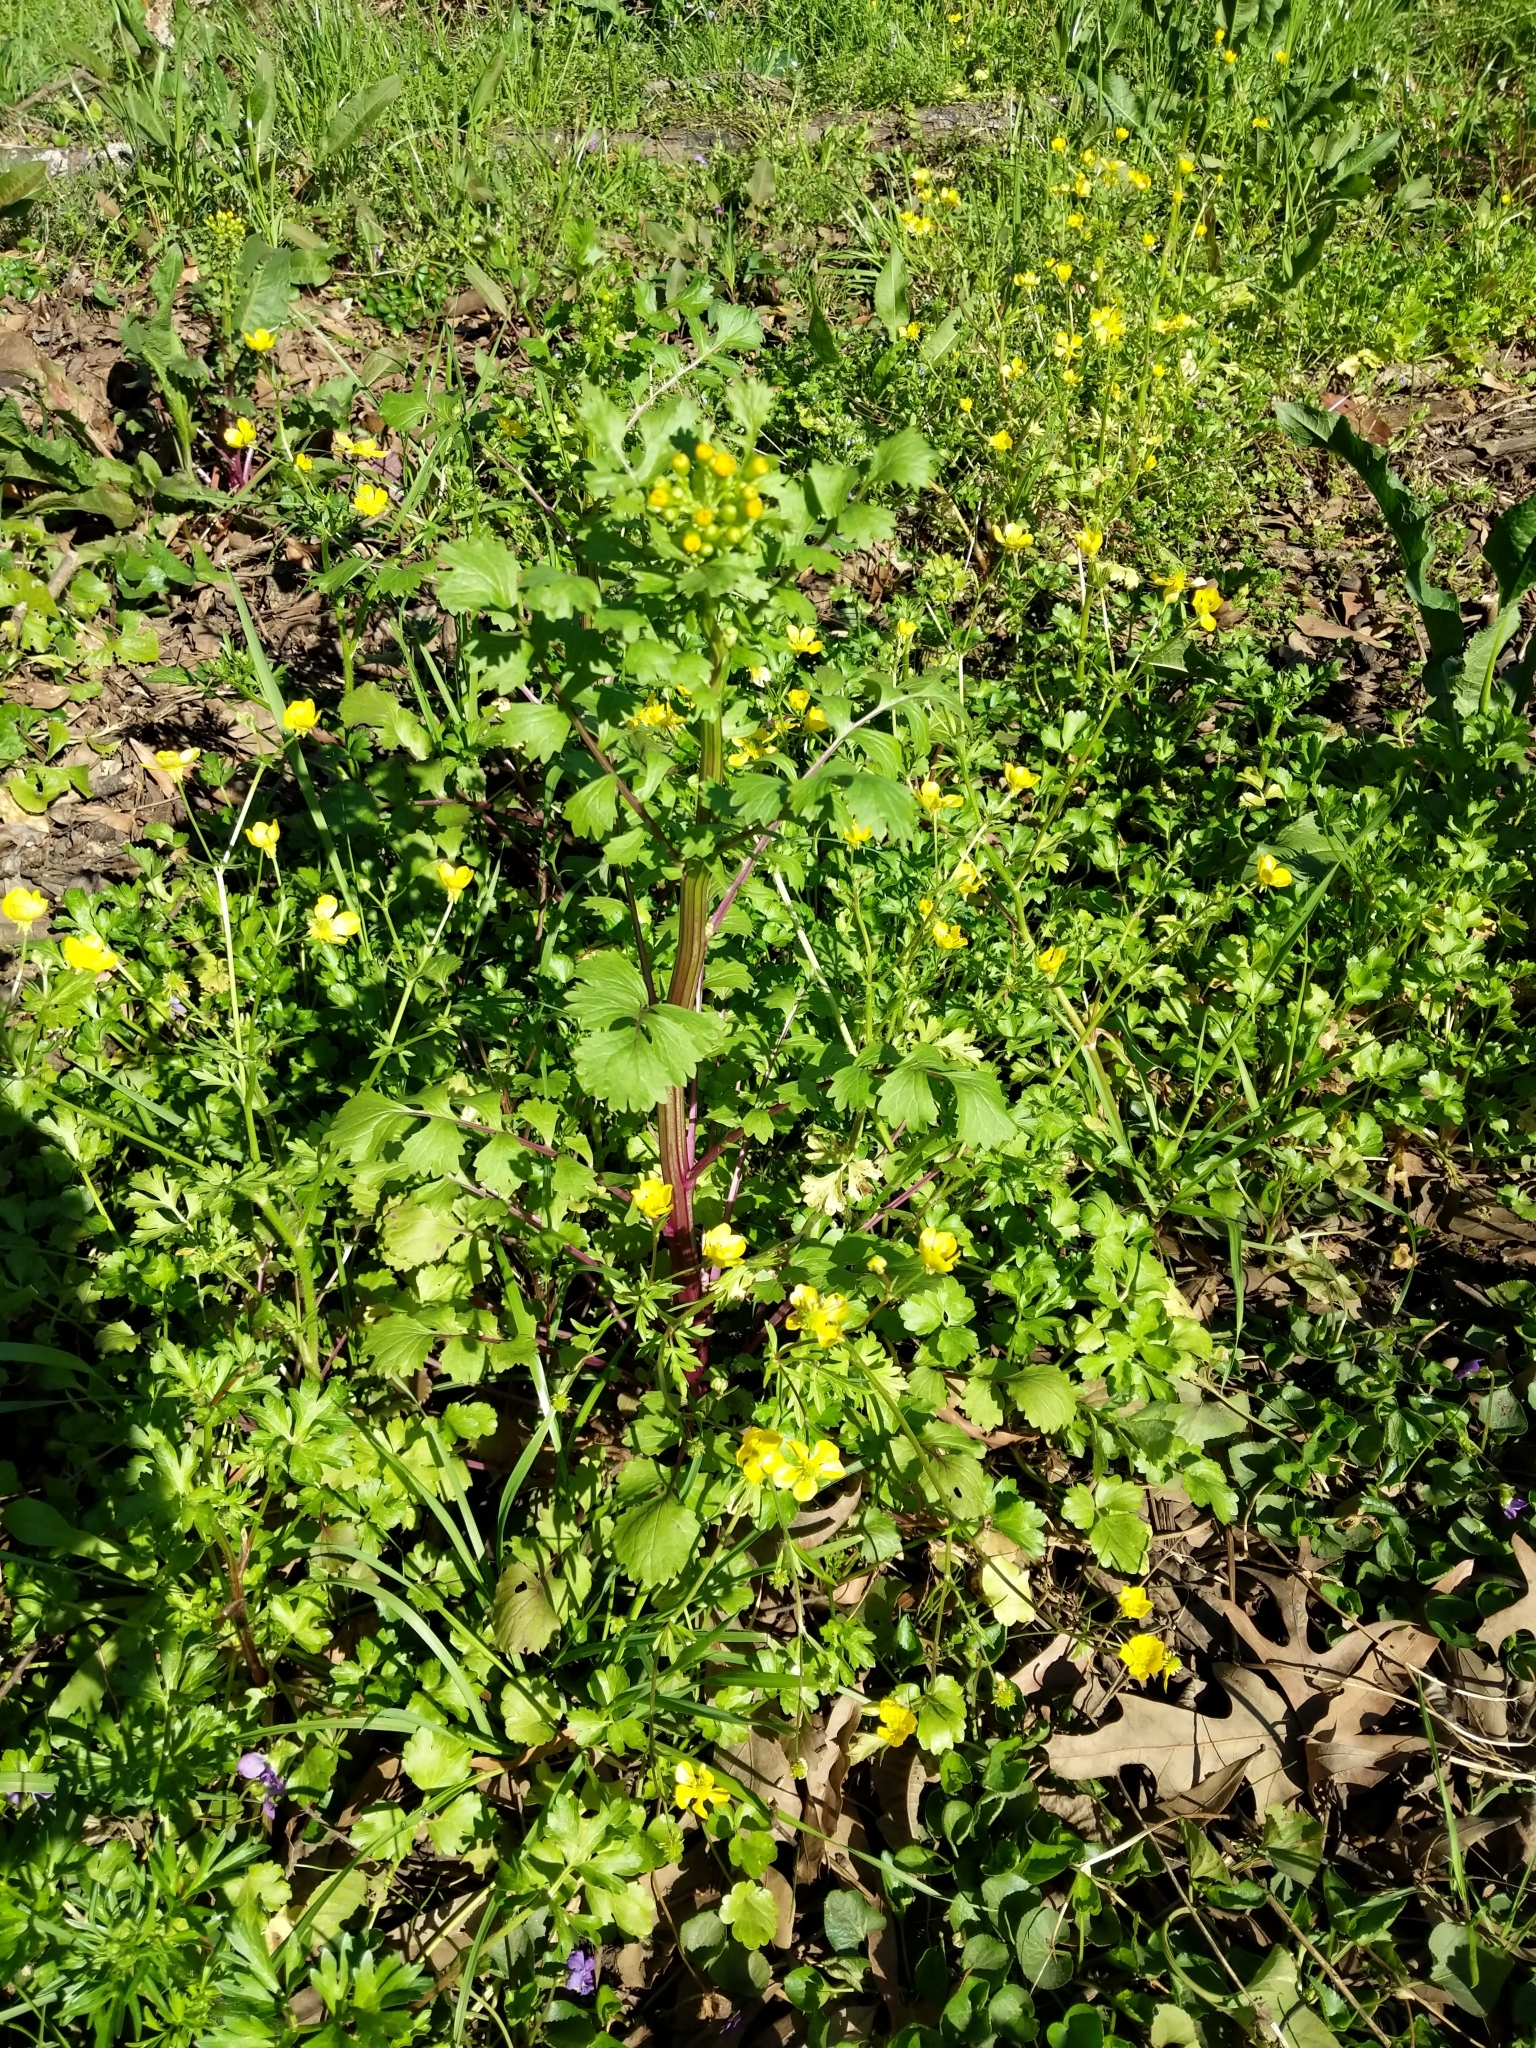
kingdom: Plantae
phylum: Tracheophyta
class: Magnoliopsida
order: Asterales
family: Asteraceae
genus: Packera
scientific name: Packera glabella
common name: Butterweed
